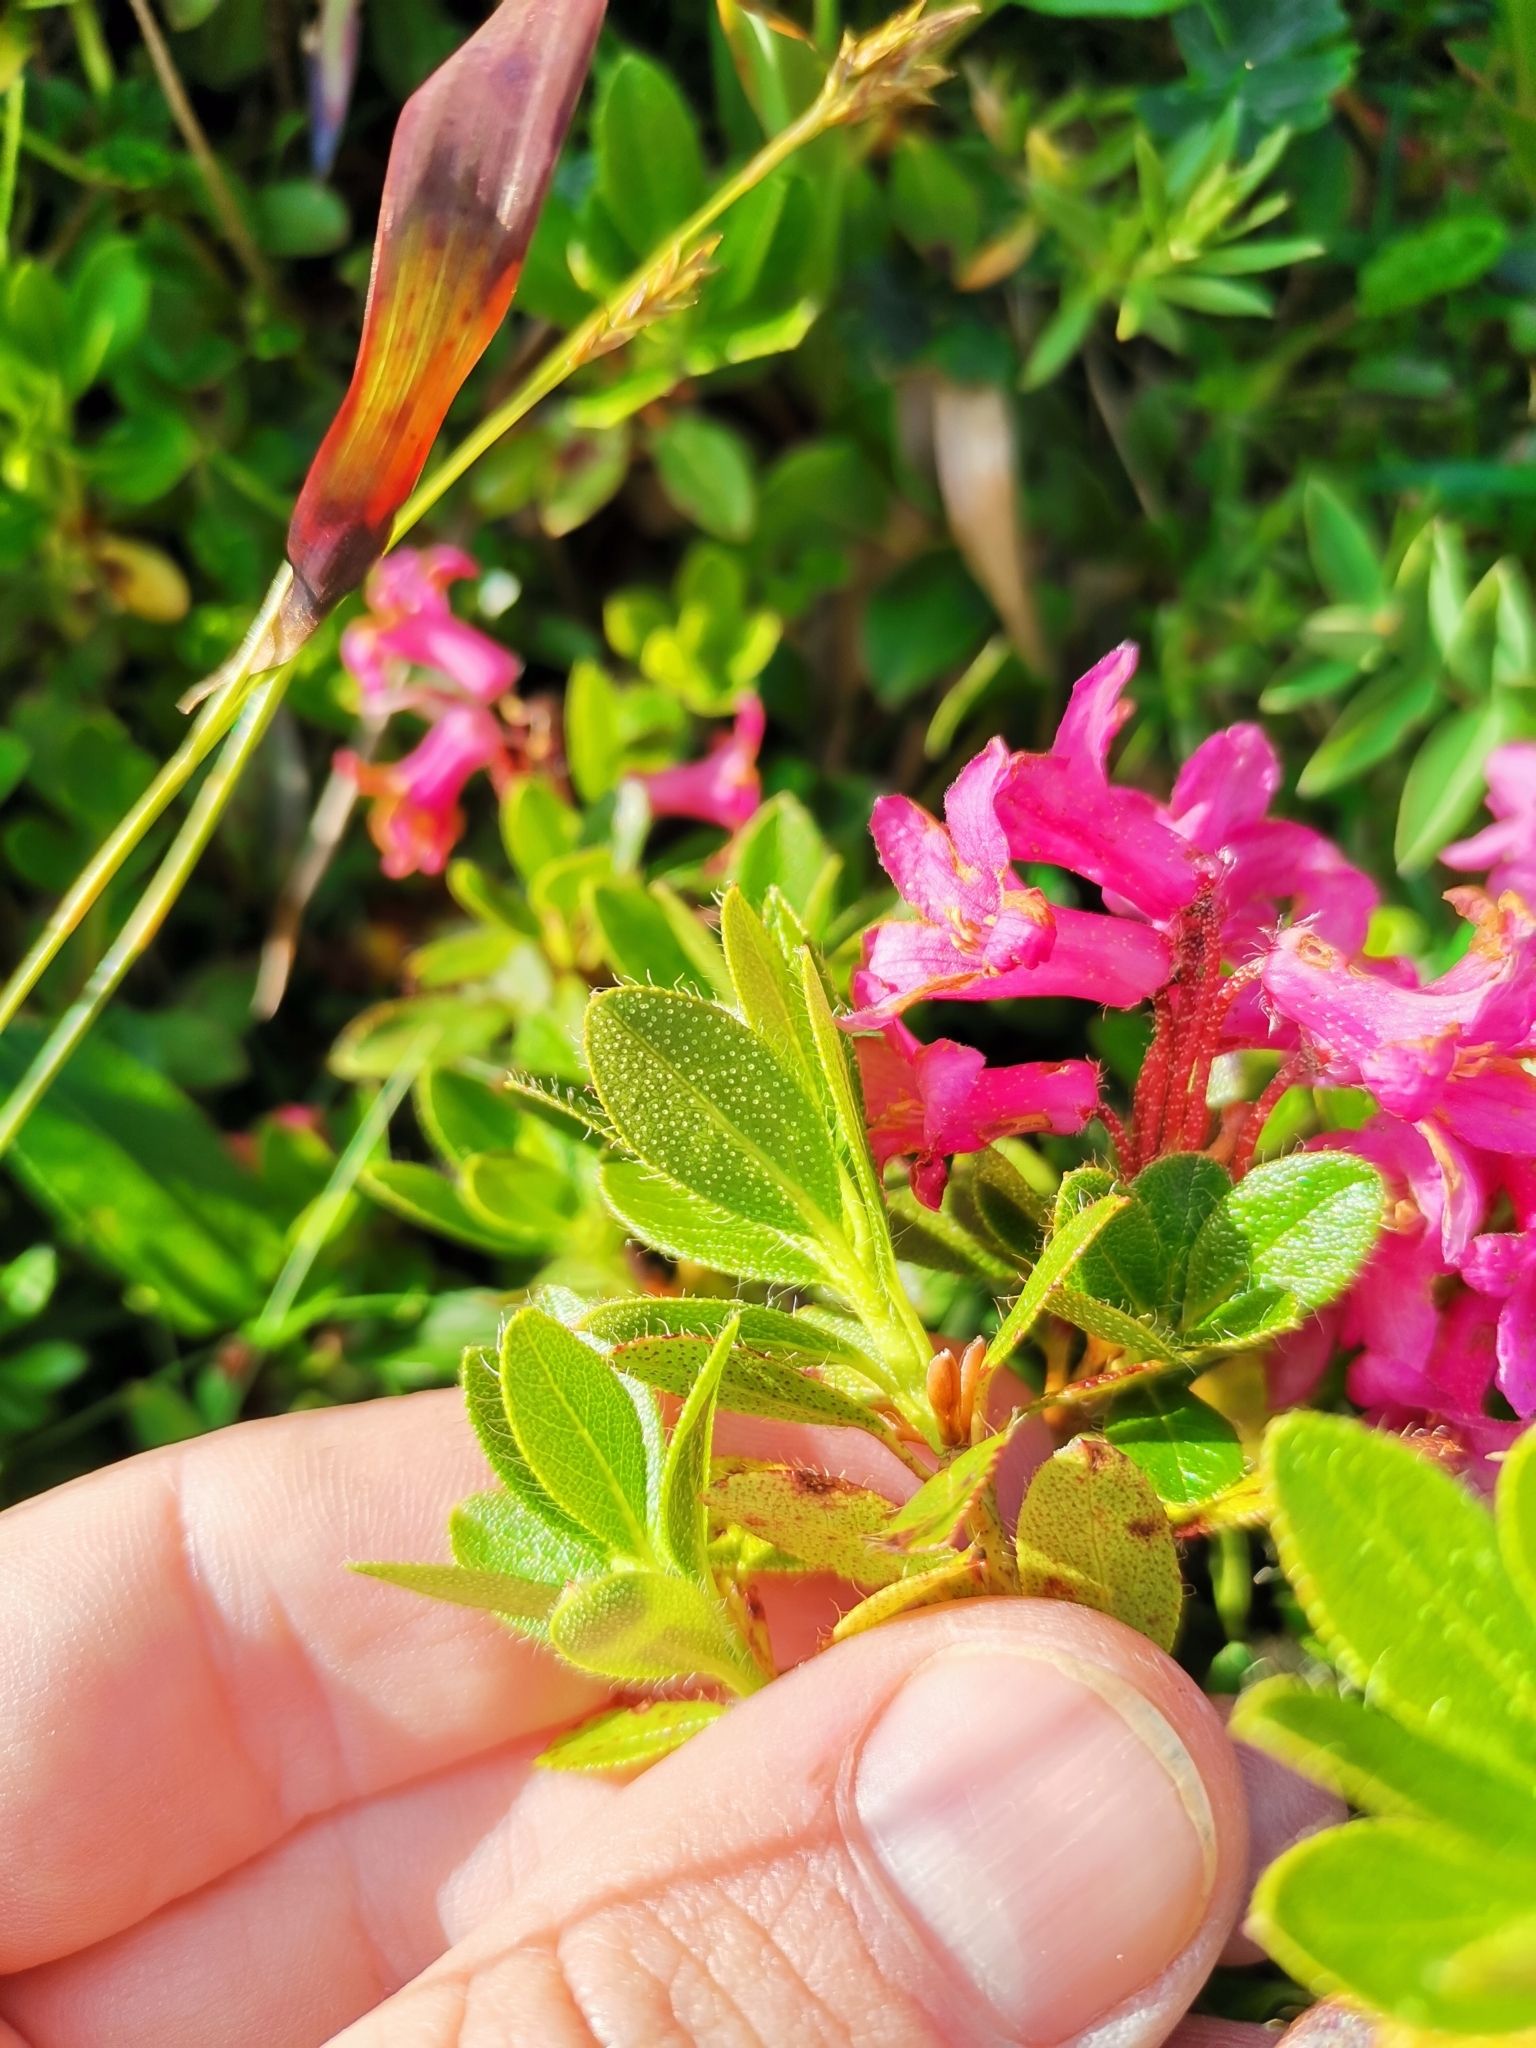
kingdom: Plantae
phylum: Tracheophyta
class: Magnoliopsida
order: Ericales
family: Ericaceae
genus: Rhododendron
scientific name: Rhododendron hirsutum
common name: Hairy alpenrose
